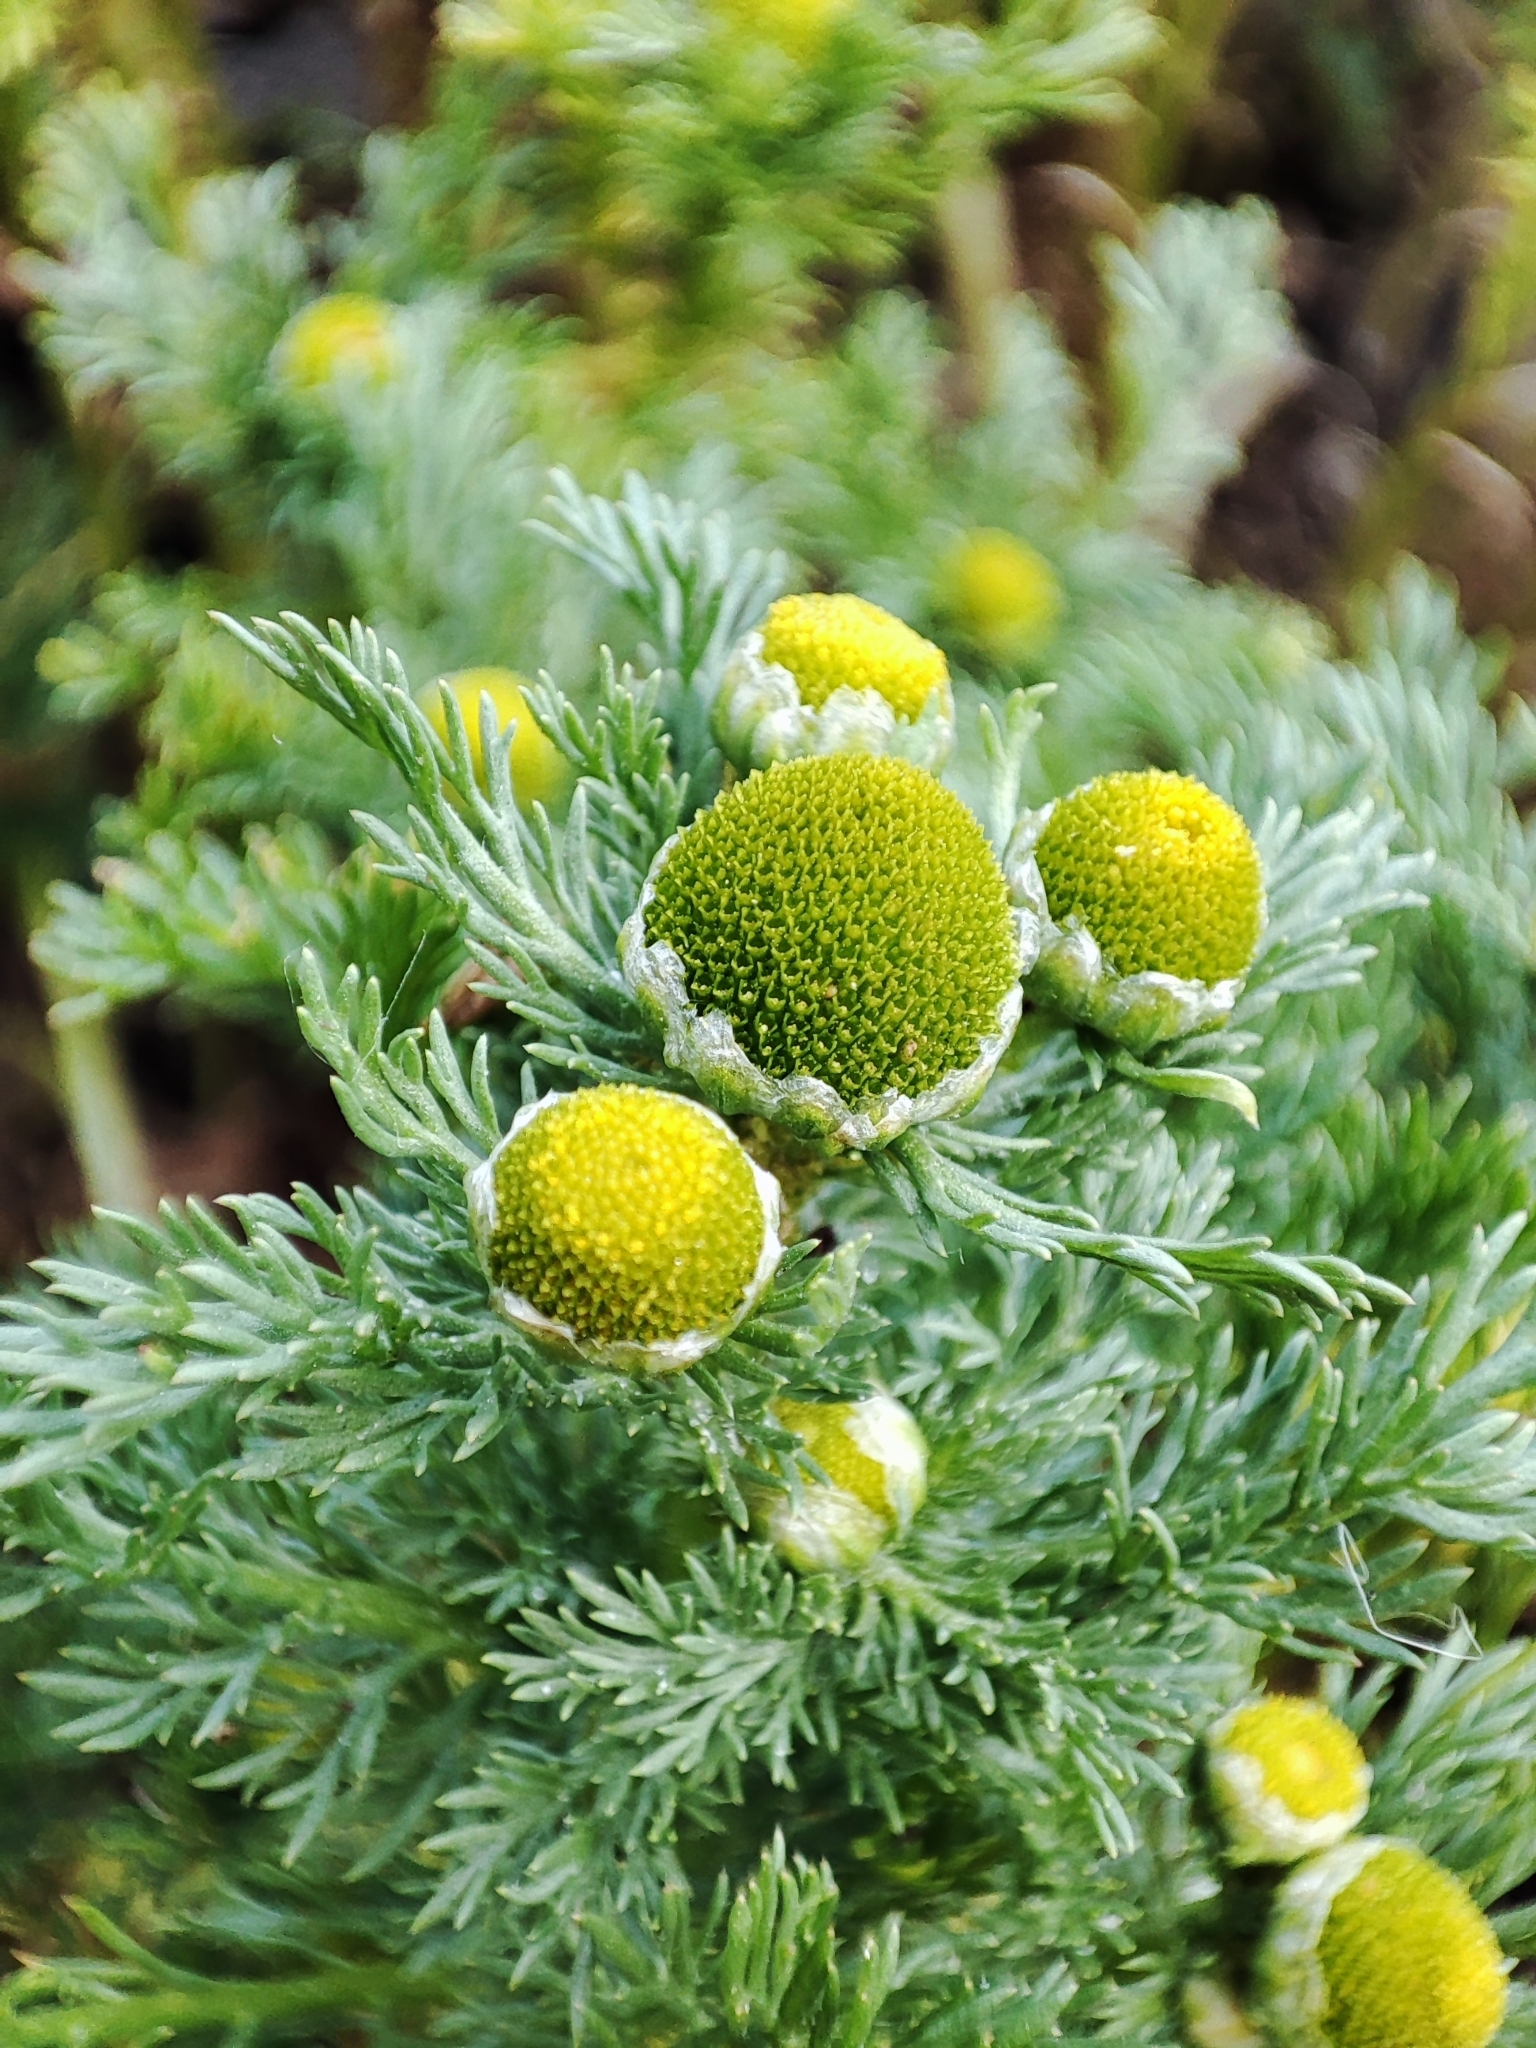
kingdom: Plantae
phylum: Tracheophyta
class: Magnoliopsida
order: Asterales
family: Asteraceae
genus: Matricaria
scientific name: Matricaria discoidea
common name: Disc mayweed
